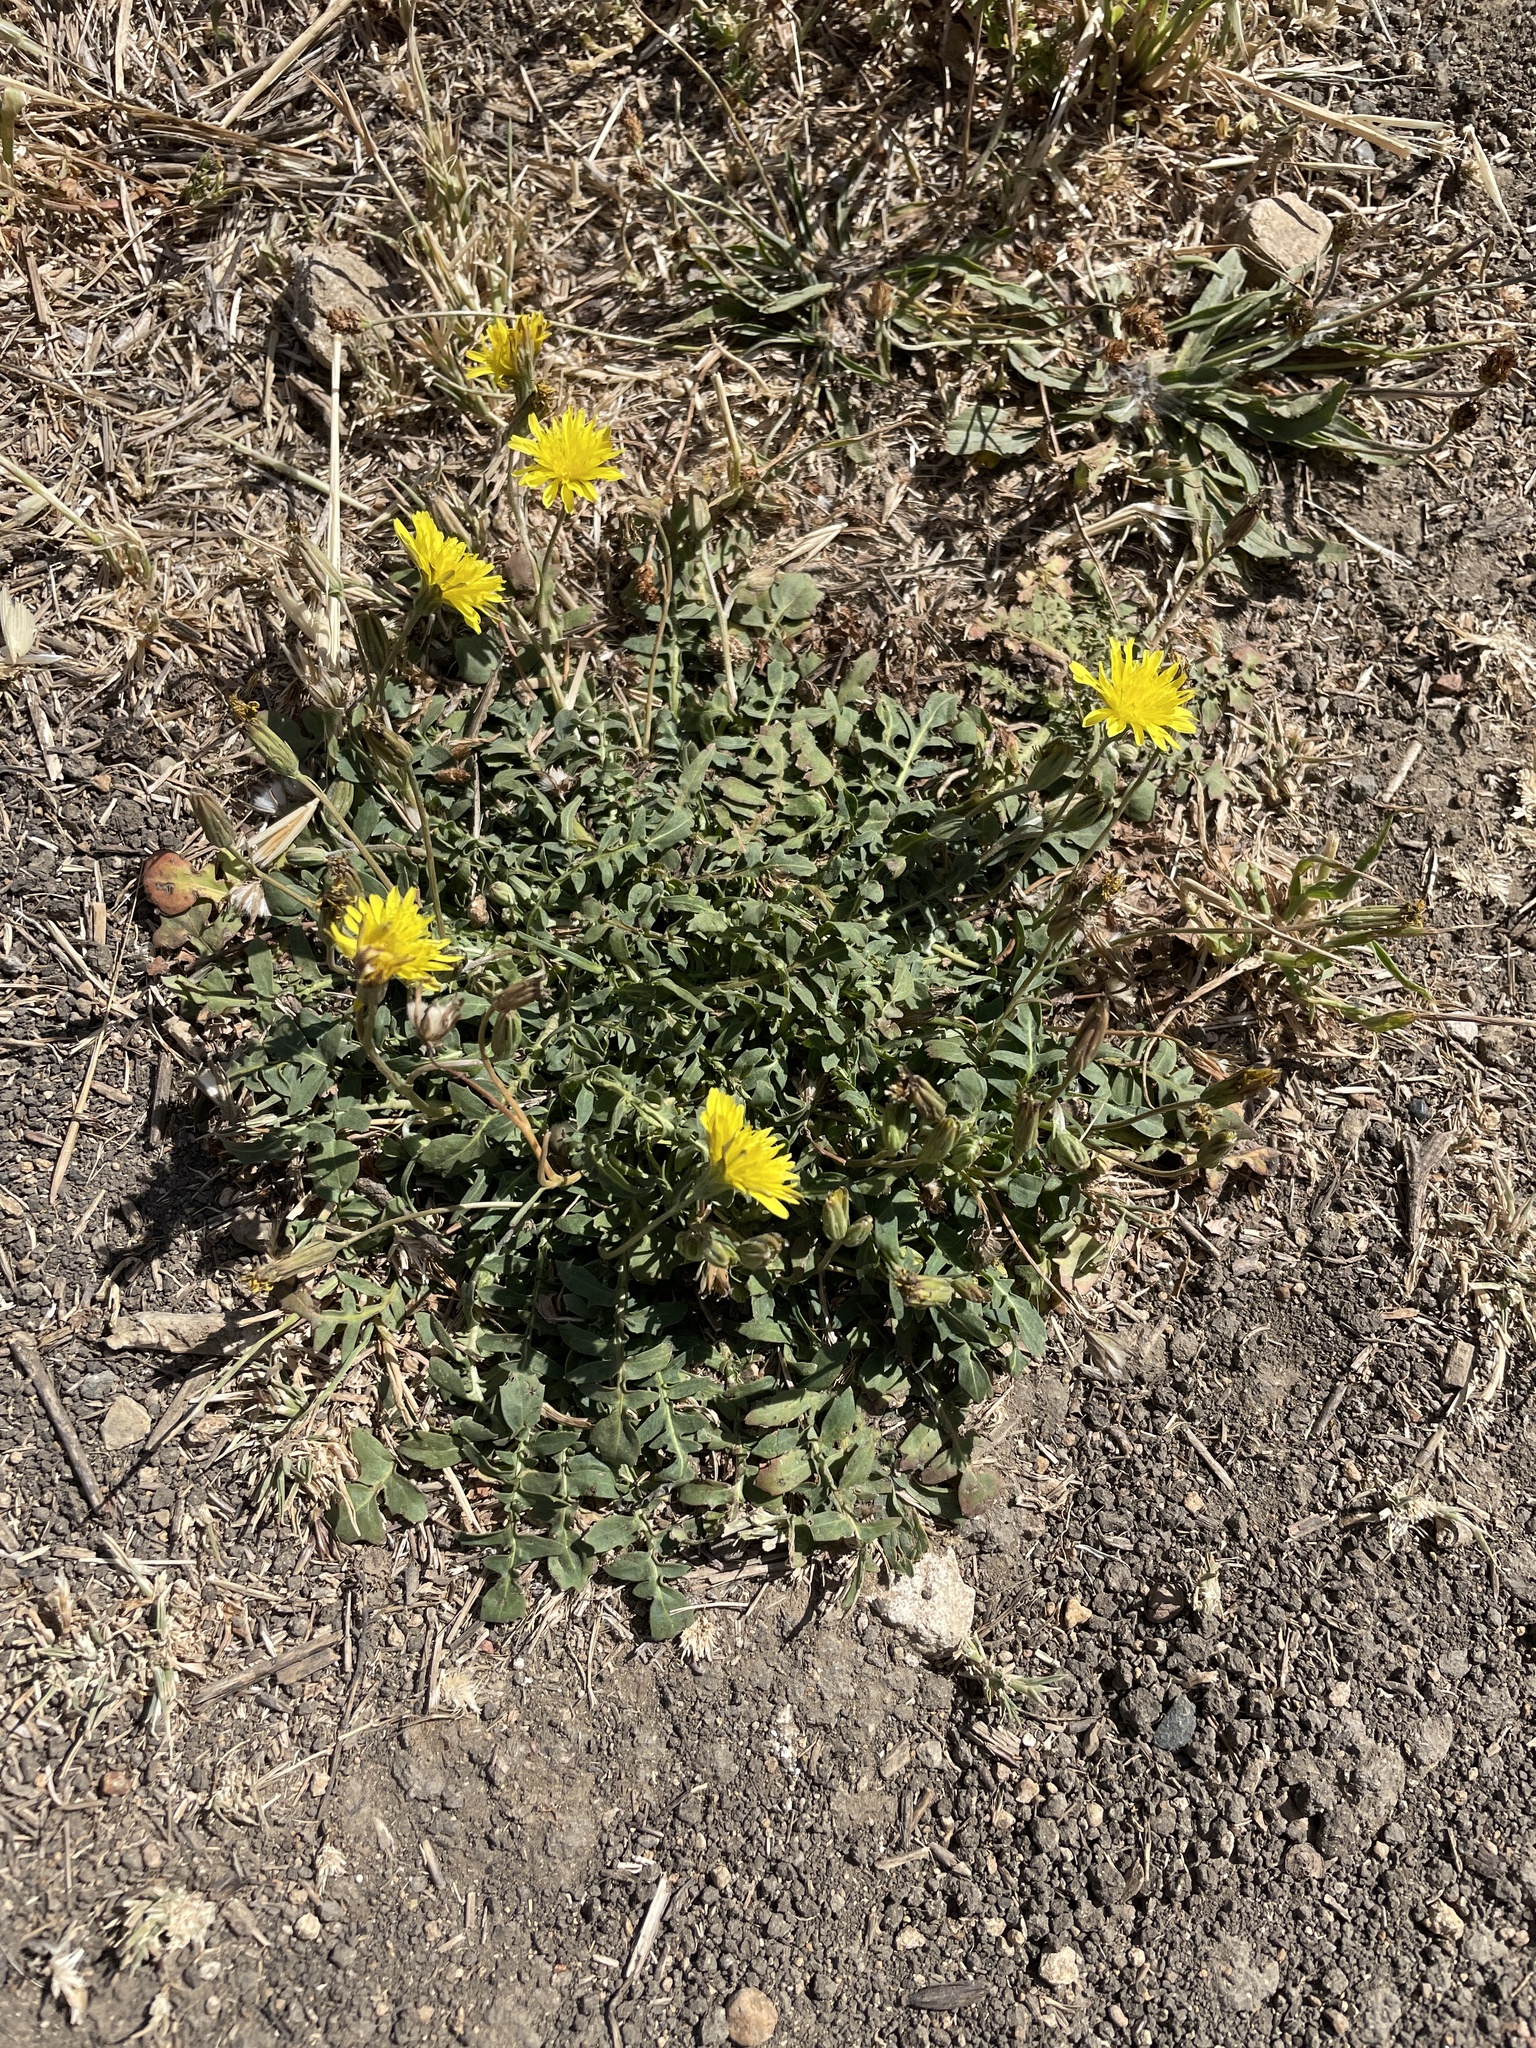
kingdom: Plantae
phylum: Tracheophyta
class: Magnoliopsida
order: Asterales
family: Asteraceae
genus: Crepis
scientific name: Crepis bursifolia
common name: Italian hawksbeard
